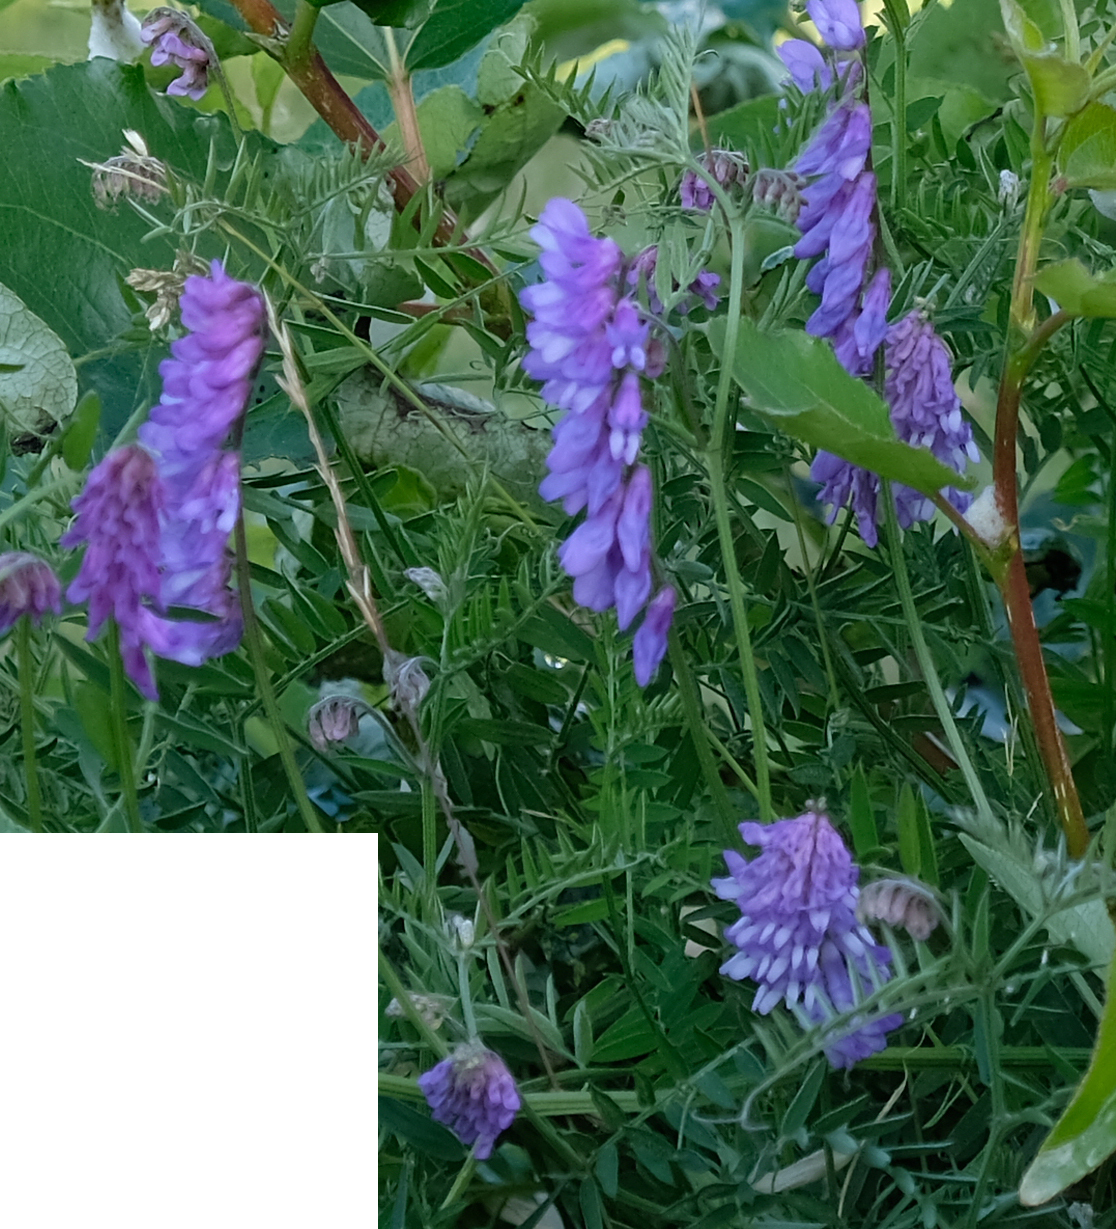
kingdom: Plantae
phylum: Tracheophyta
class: Magnoliopsida
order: Fabales
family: Fabaceae
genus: Vicia
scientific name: Vicia cracca
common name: Bird vetch
